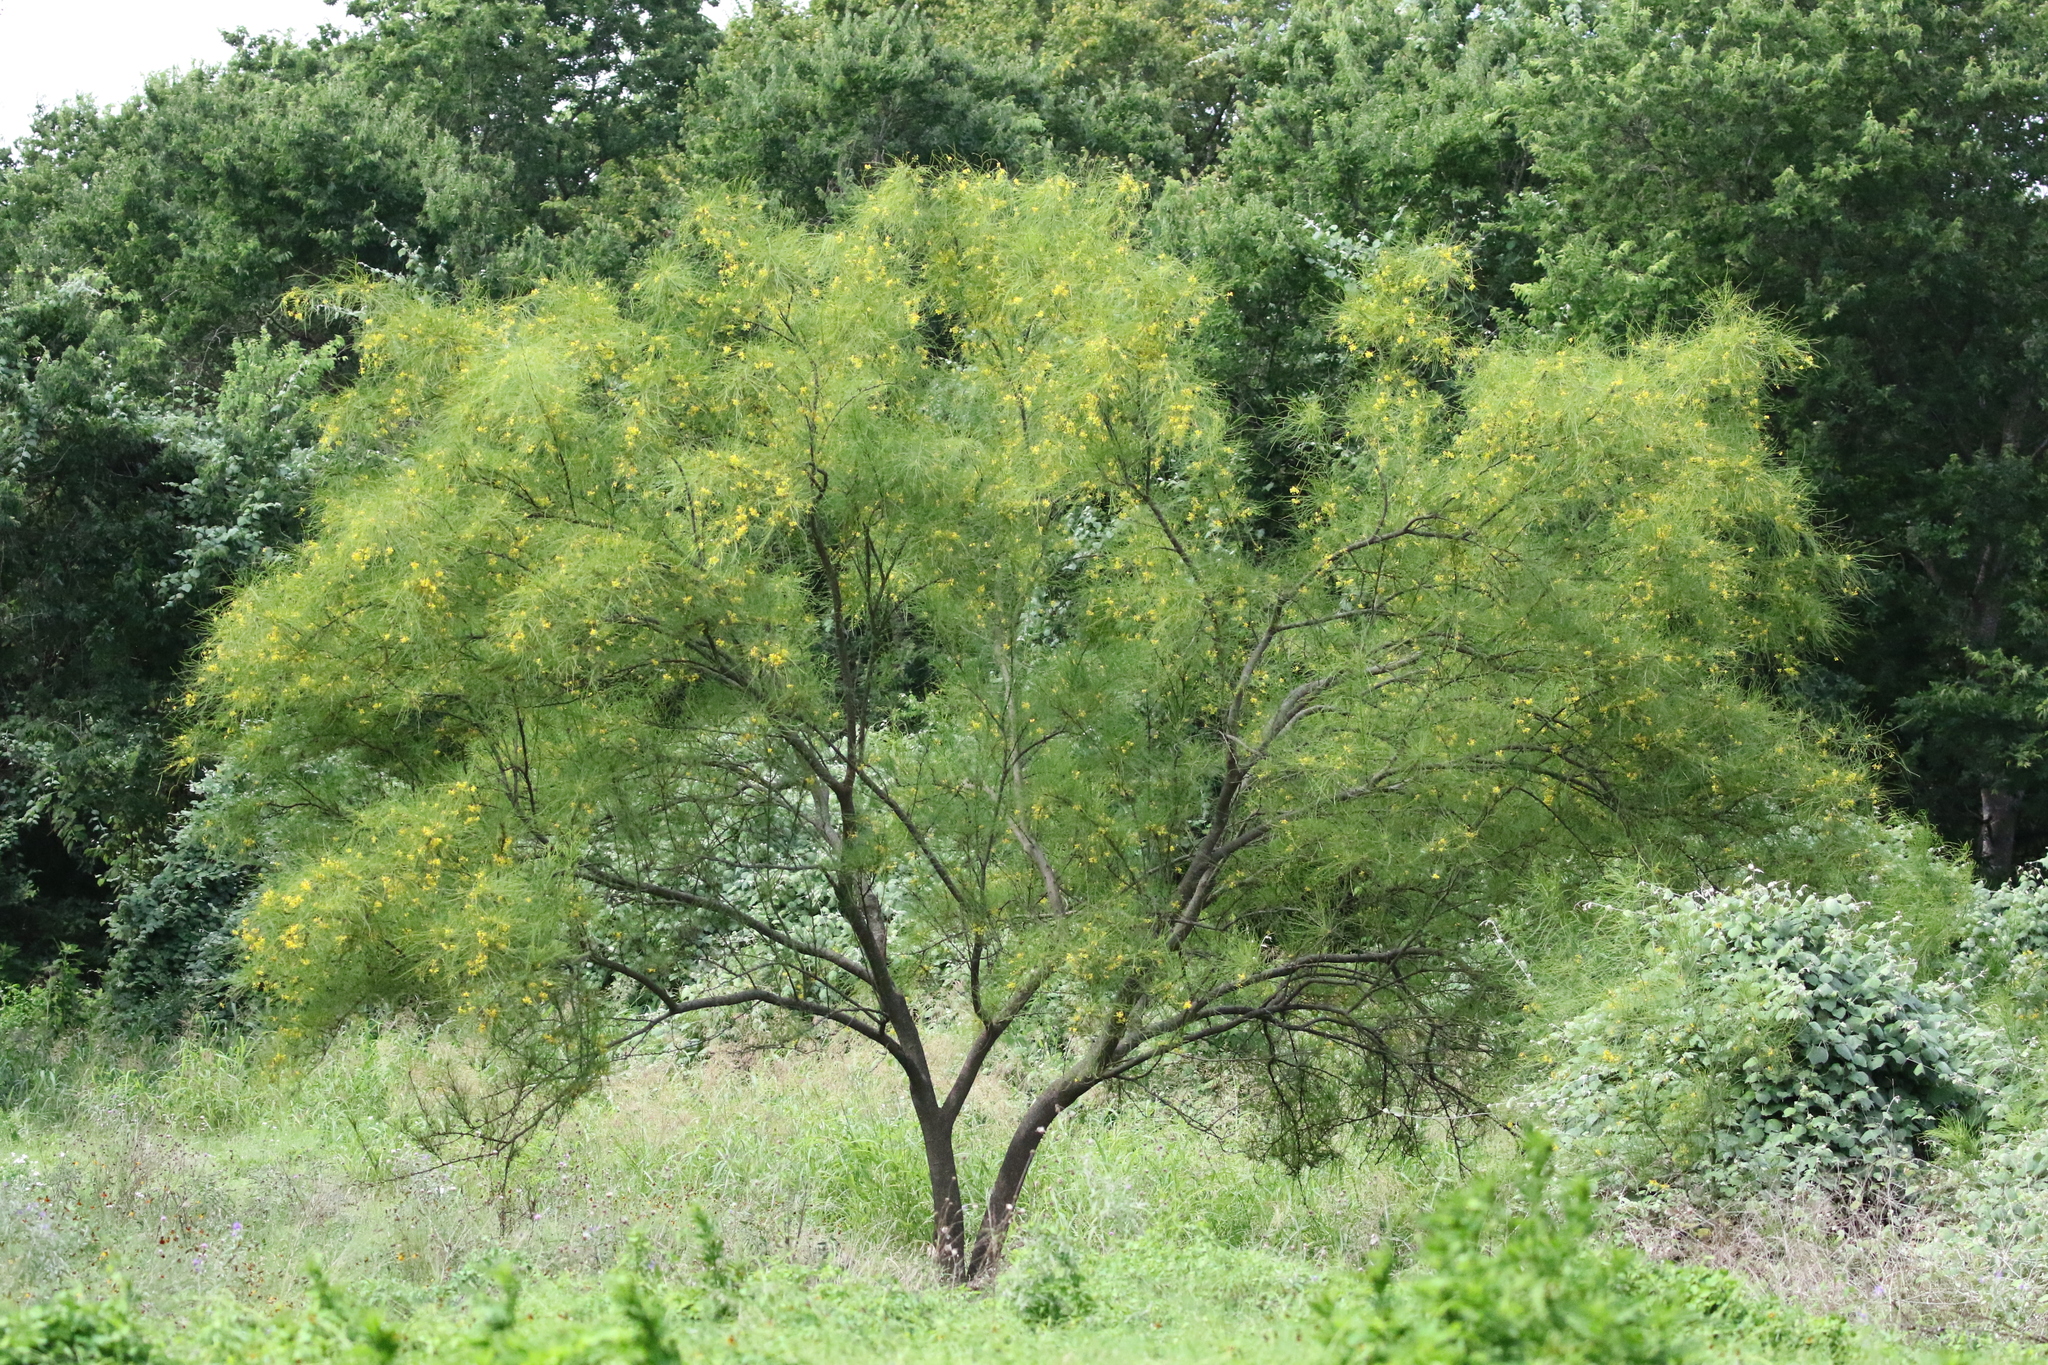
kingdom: Plantae
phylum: Tracheophyta
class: Magnoliopsida
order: Fabales
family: Fabaceae
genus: Parkinsonia
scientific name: Parkinsonia aculeata
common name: Jerusalem thorn
